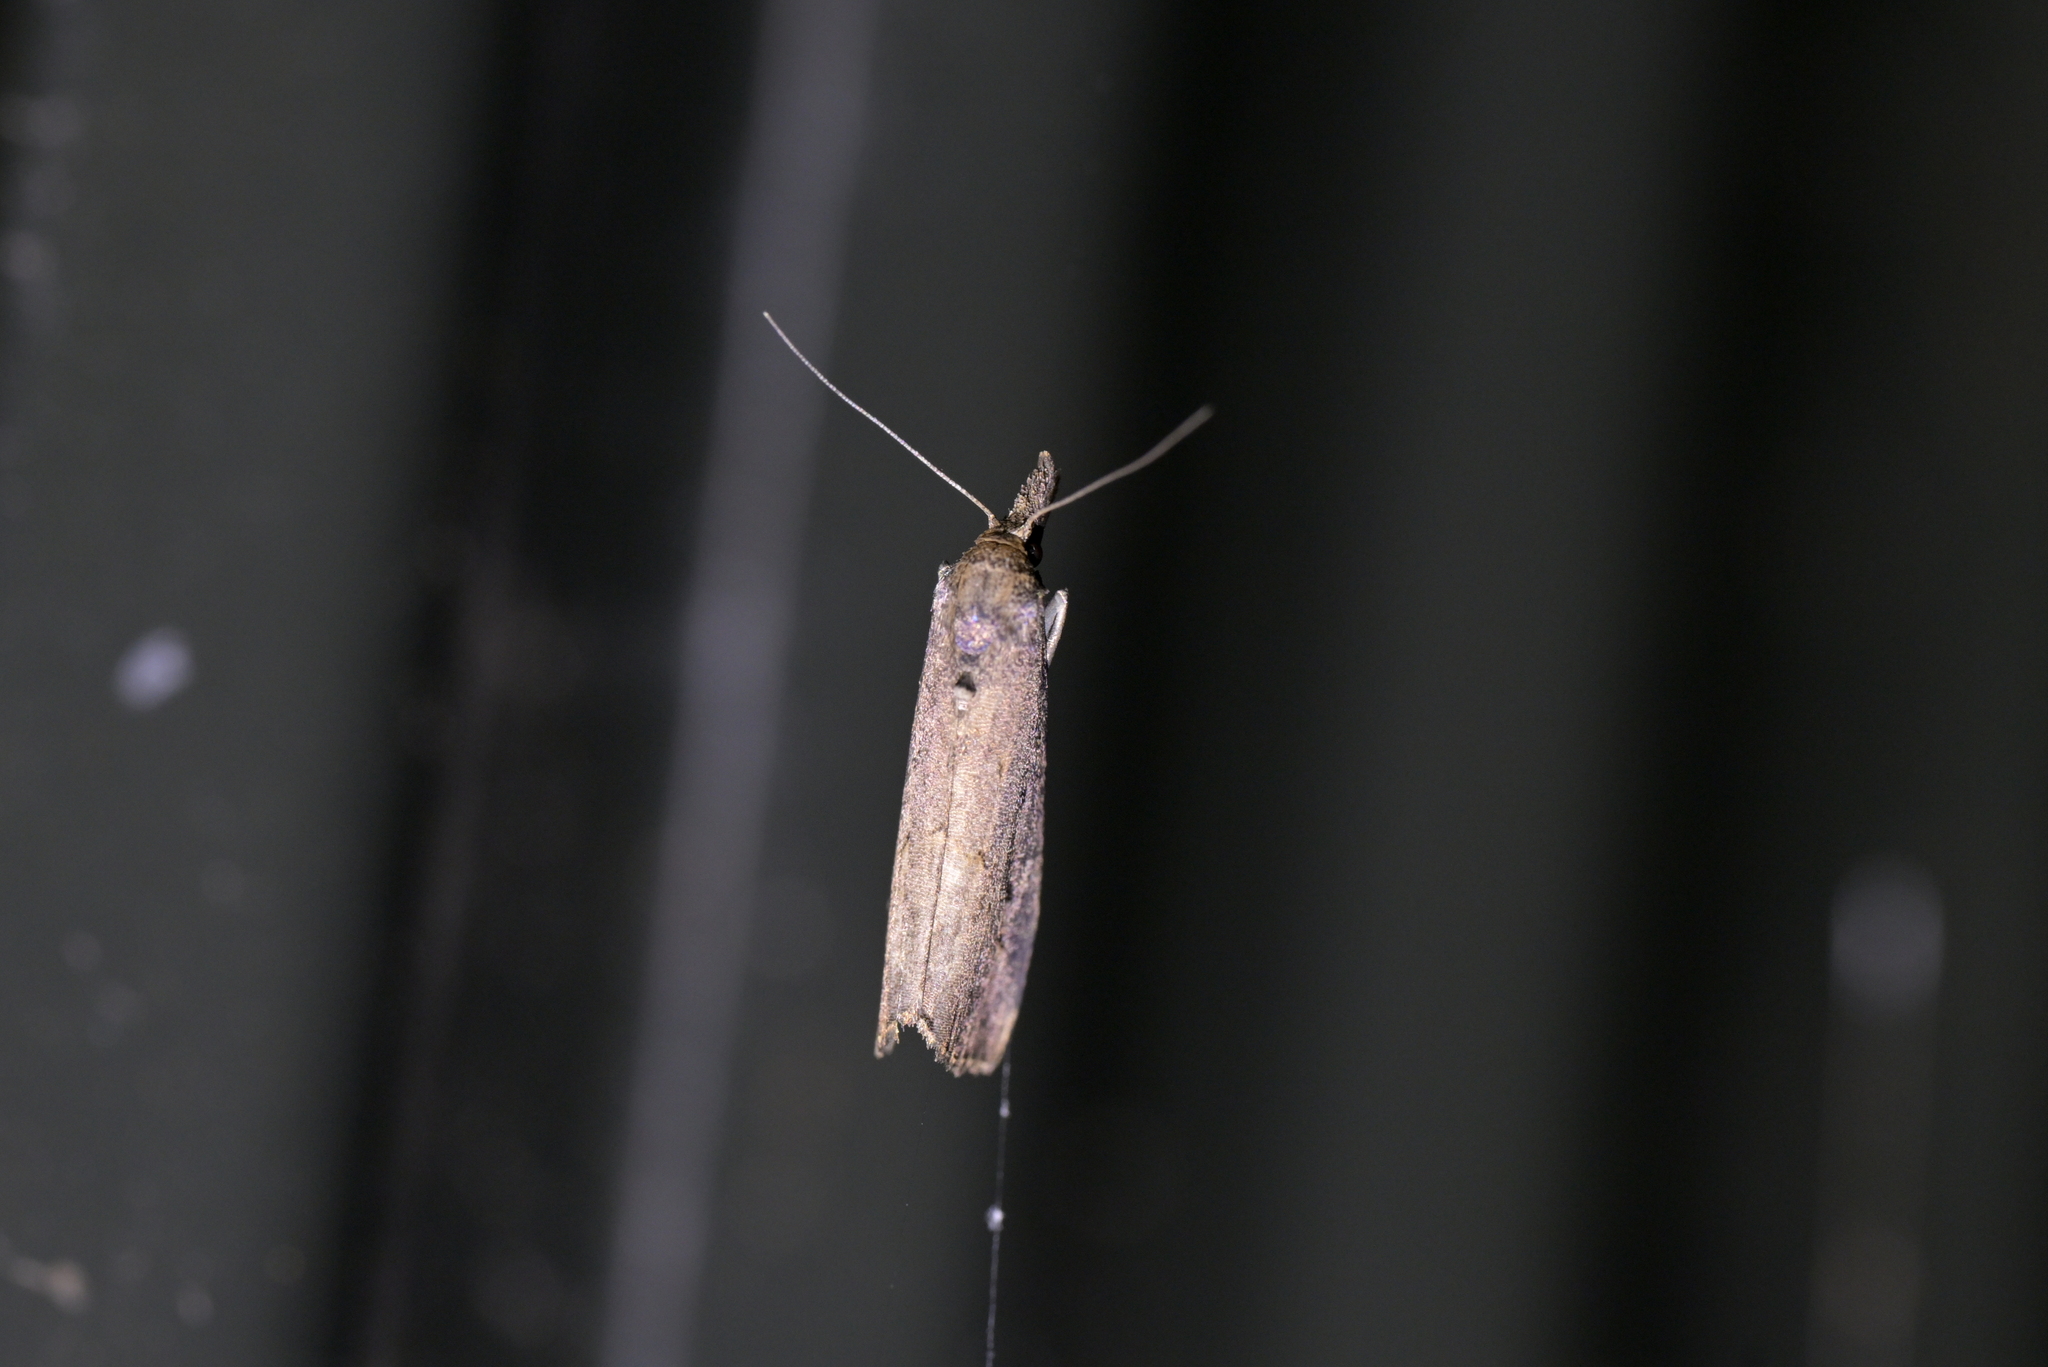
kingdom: Animalia
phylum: Arthropoda
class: Insecta
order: Lepidoptera
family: Erebidae
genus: Schrankia
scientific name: Schrankia costaestrigalis
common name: Pinion-streaked snout
